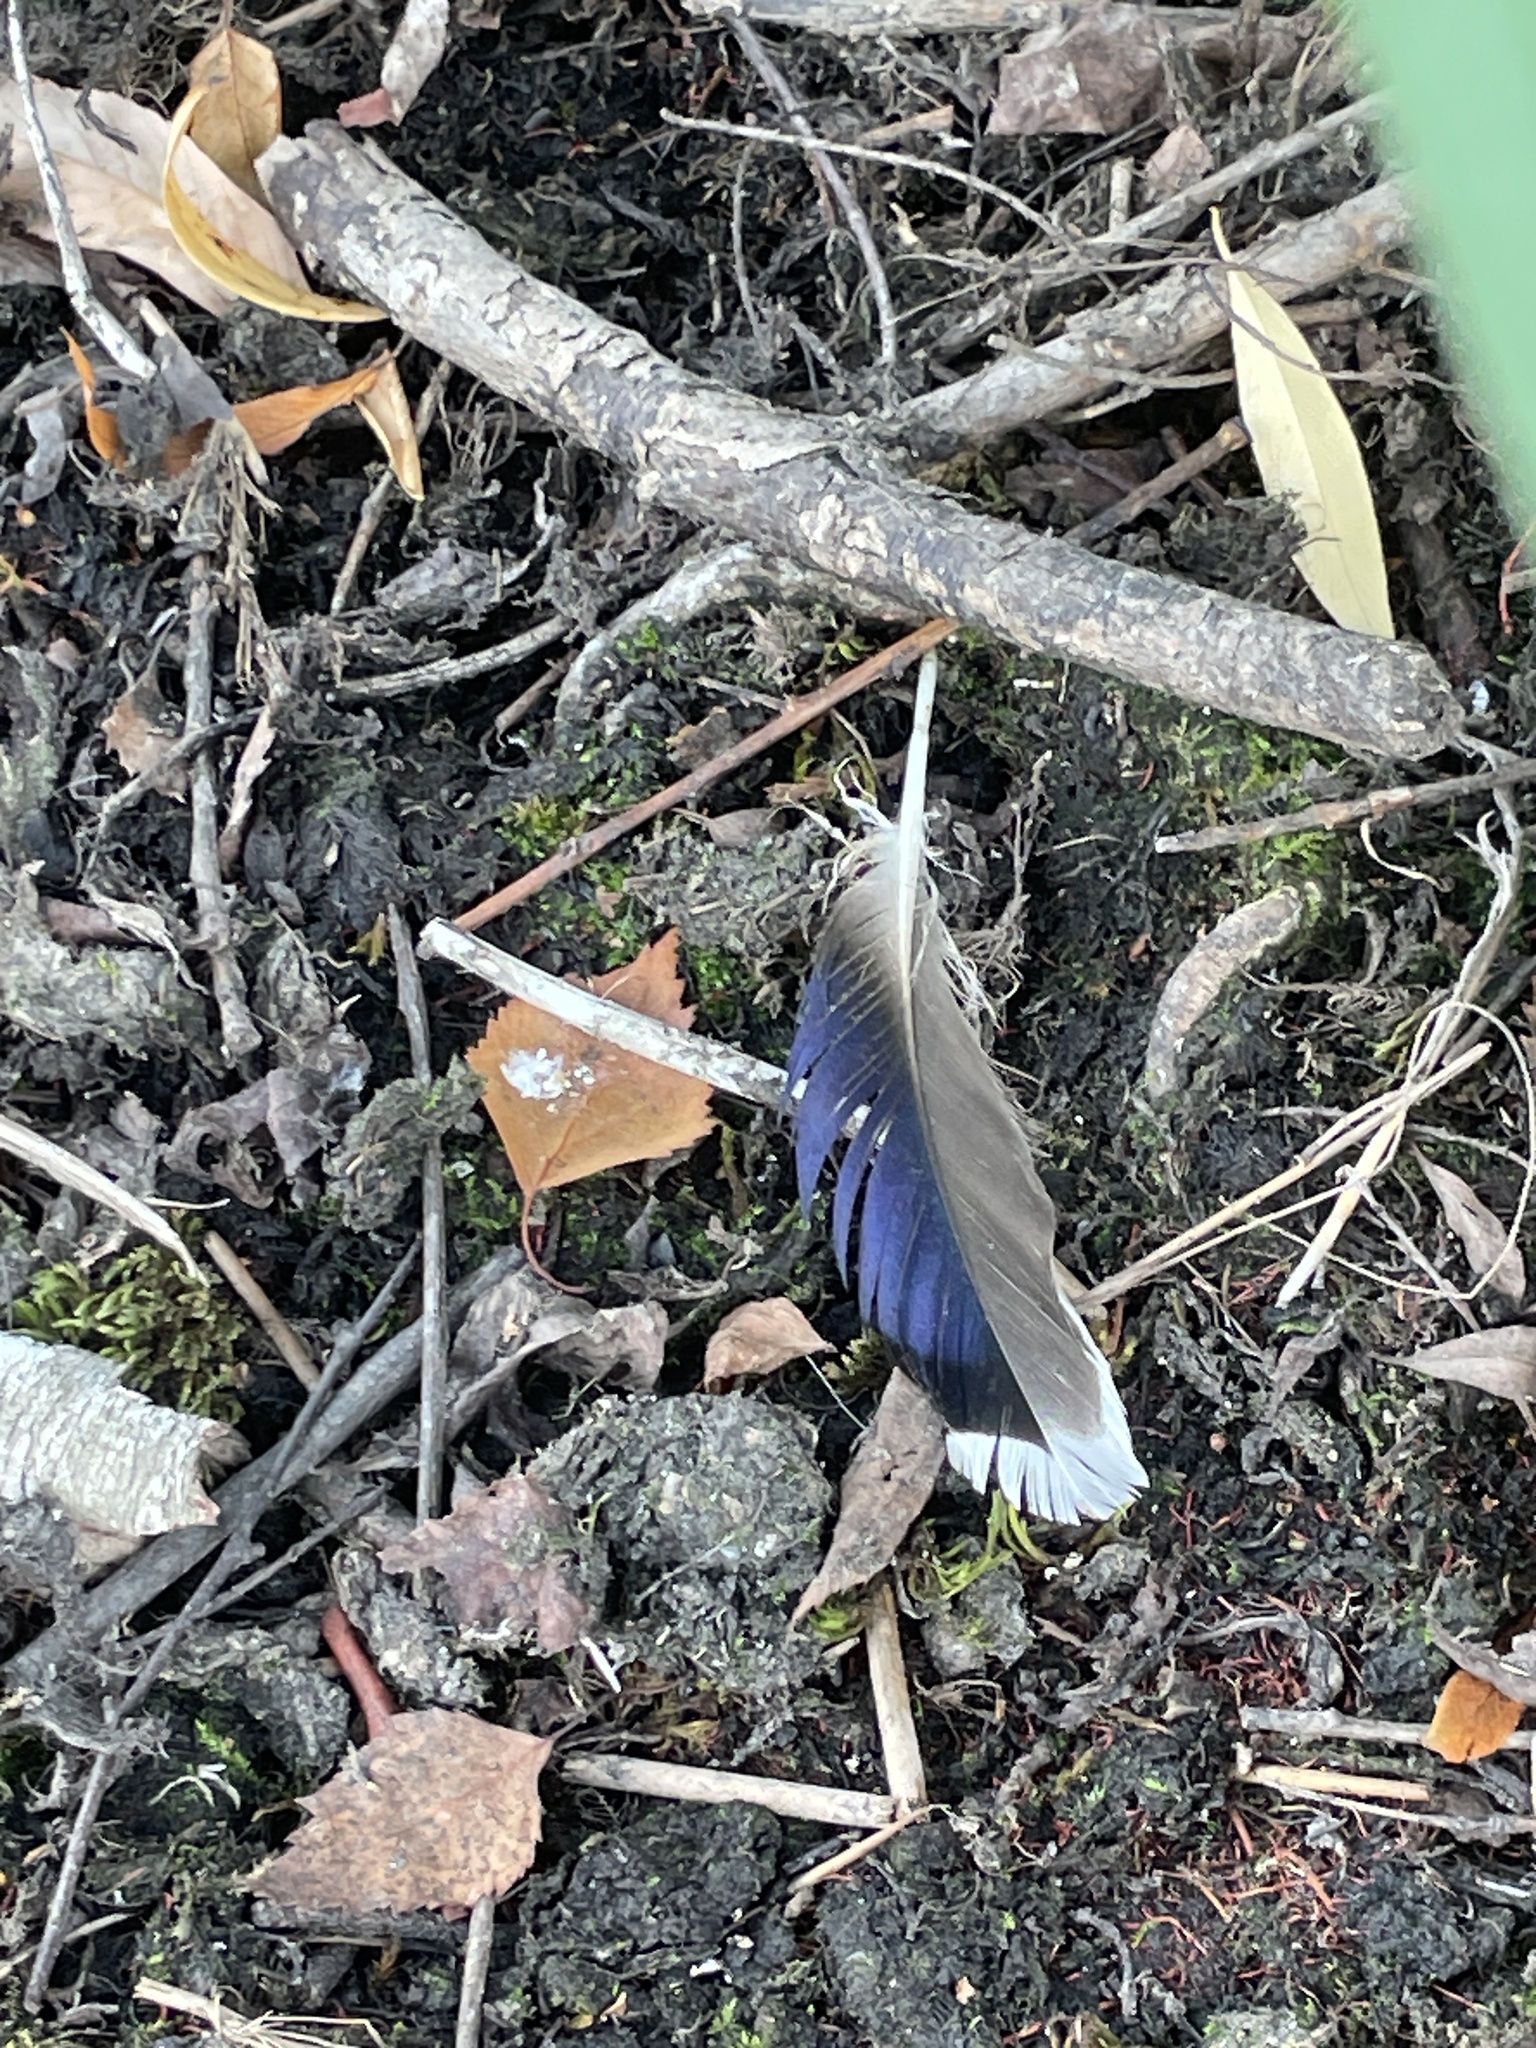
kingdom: Animalia
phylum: Chordata
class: Aves
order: Anseriformes
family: Anatidae
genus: Anas
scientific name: Anas platyrhynchos
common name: Mallard
